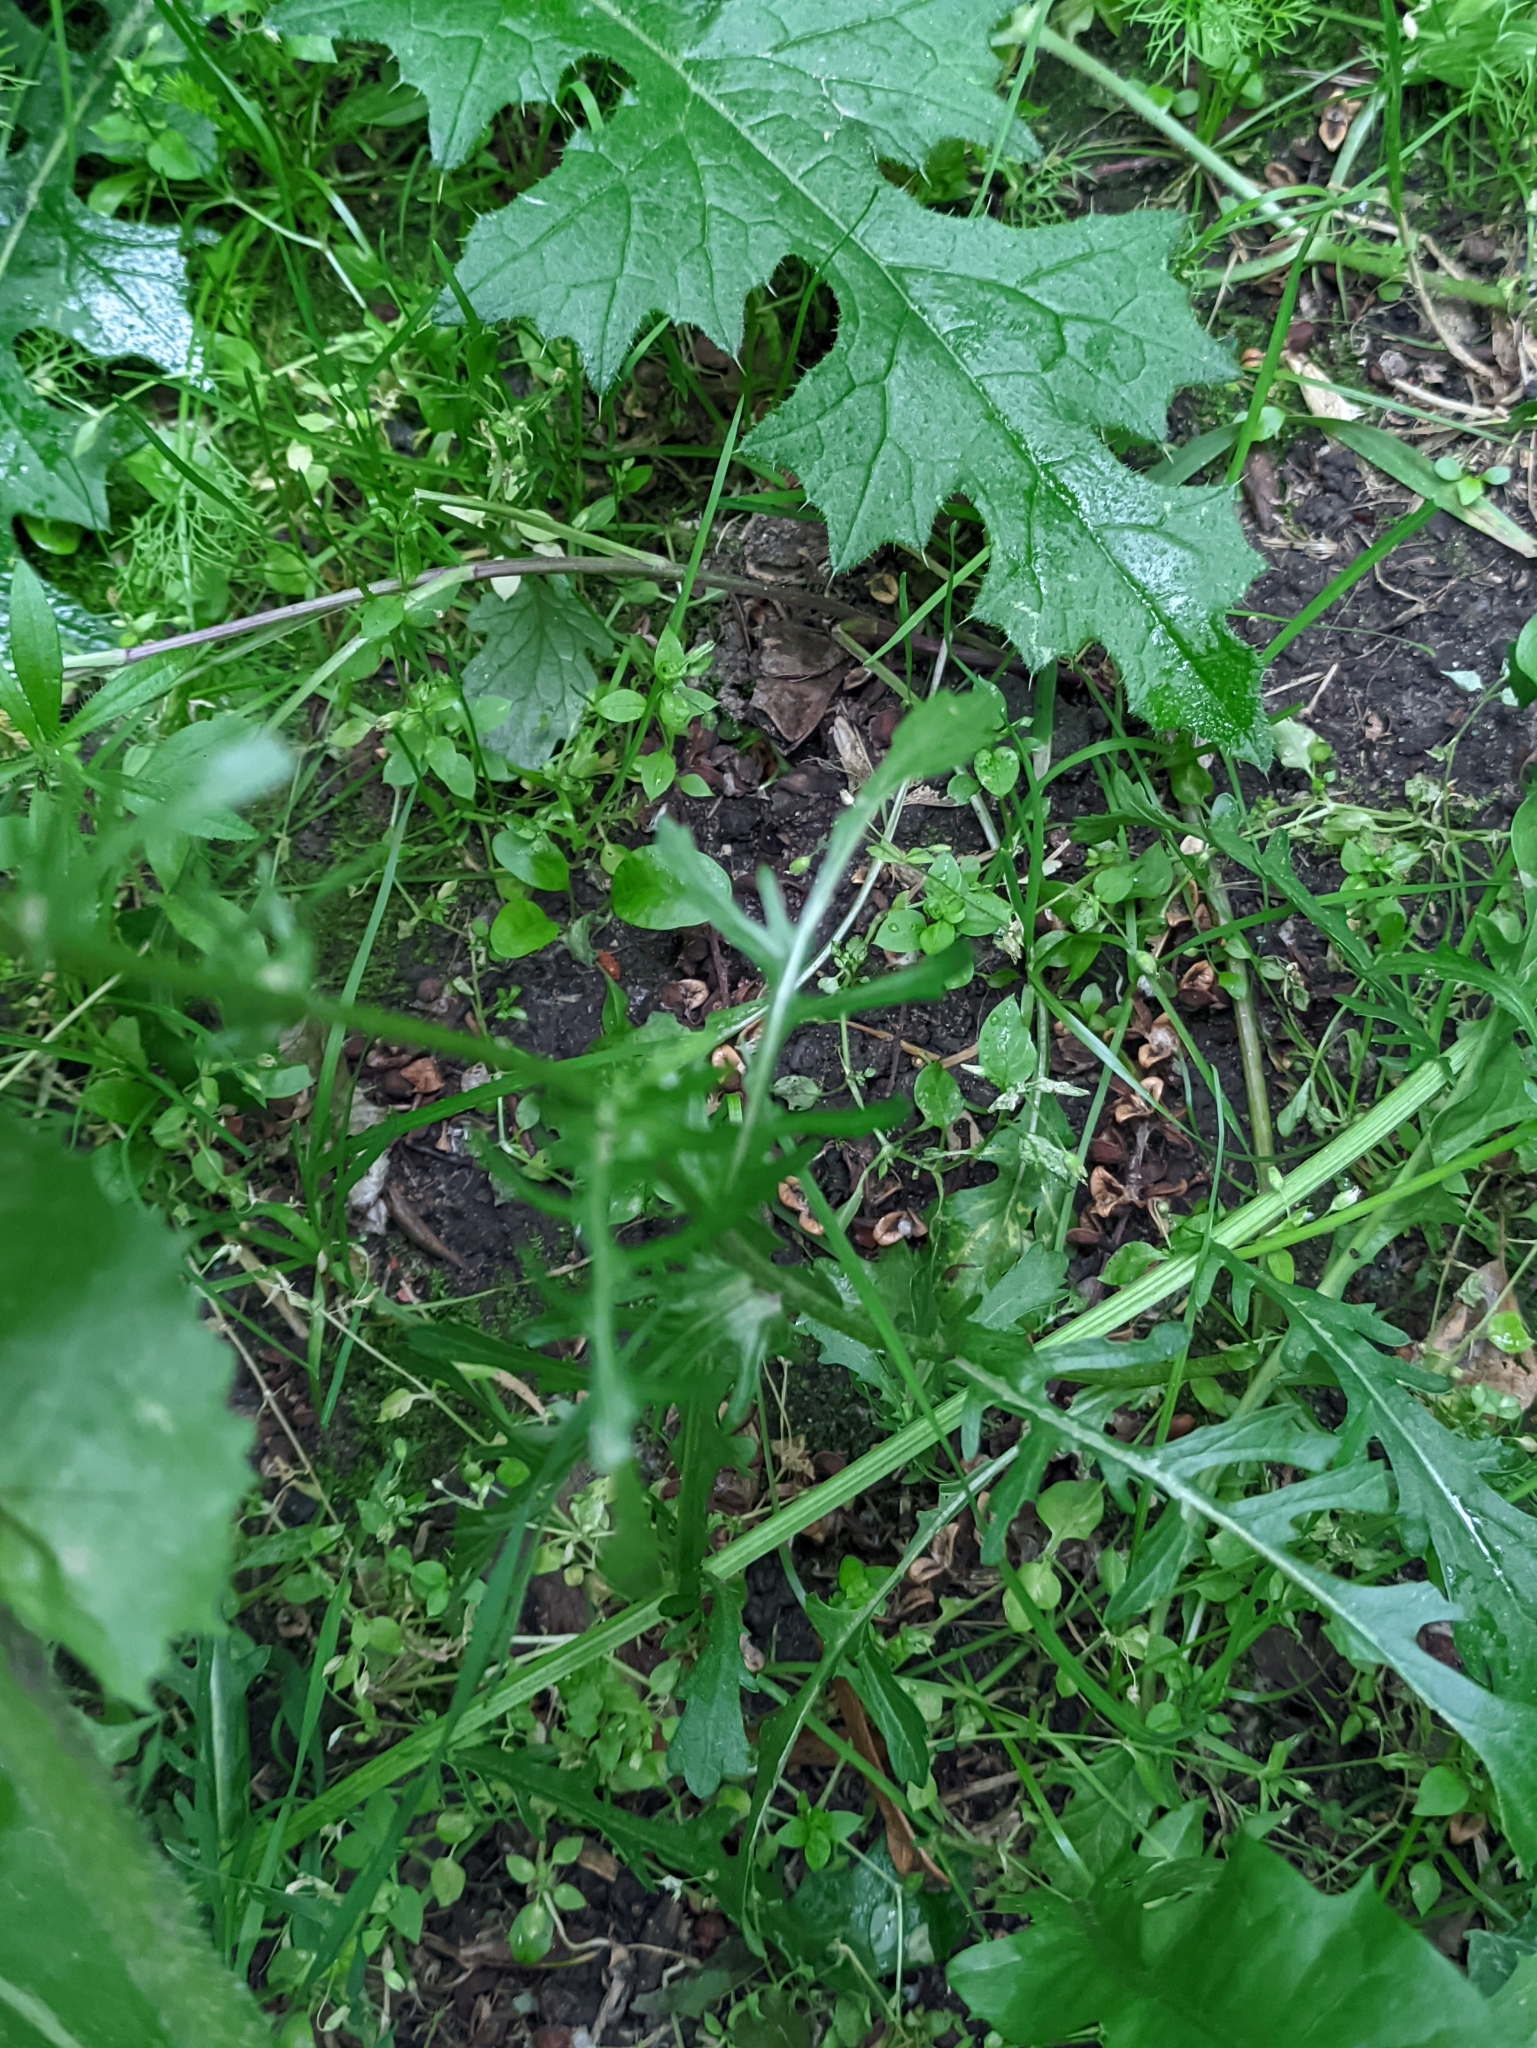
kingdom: Plantae
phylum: Tracheophyta
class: Magnoliopsida
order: Asterales
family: Asteraceae
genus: Jacobaea
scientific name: Jacobaea vulgaris
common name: Stinking willie
